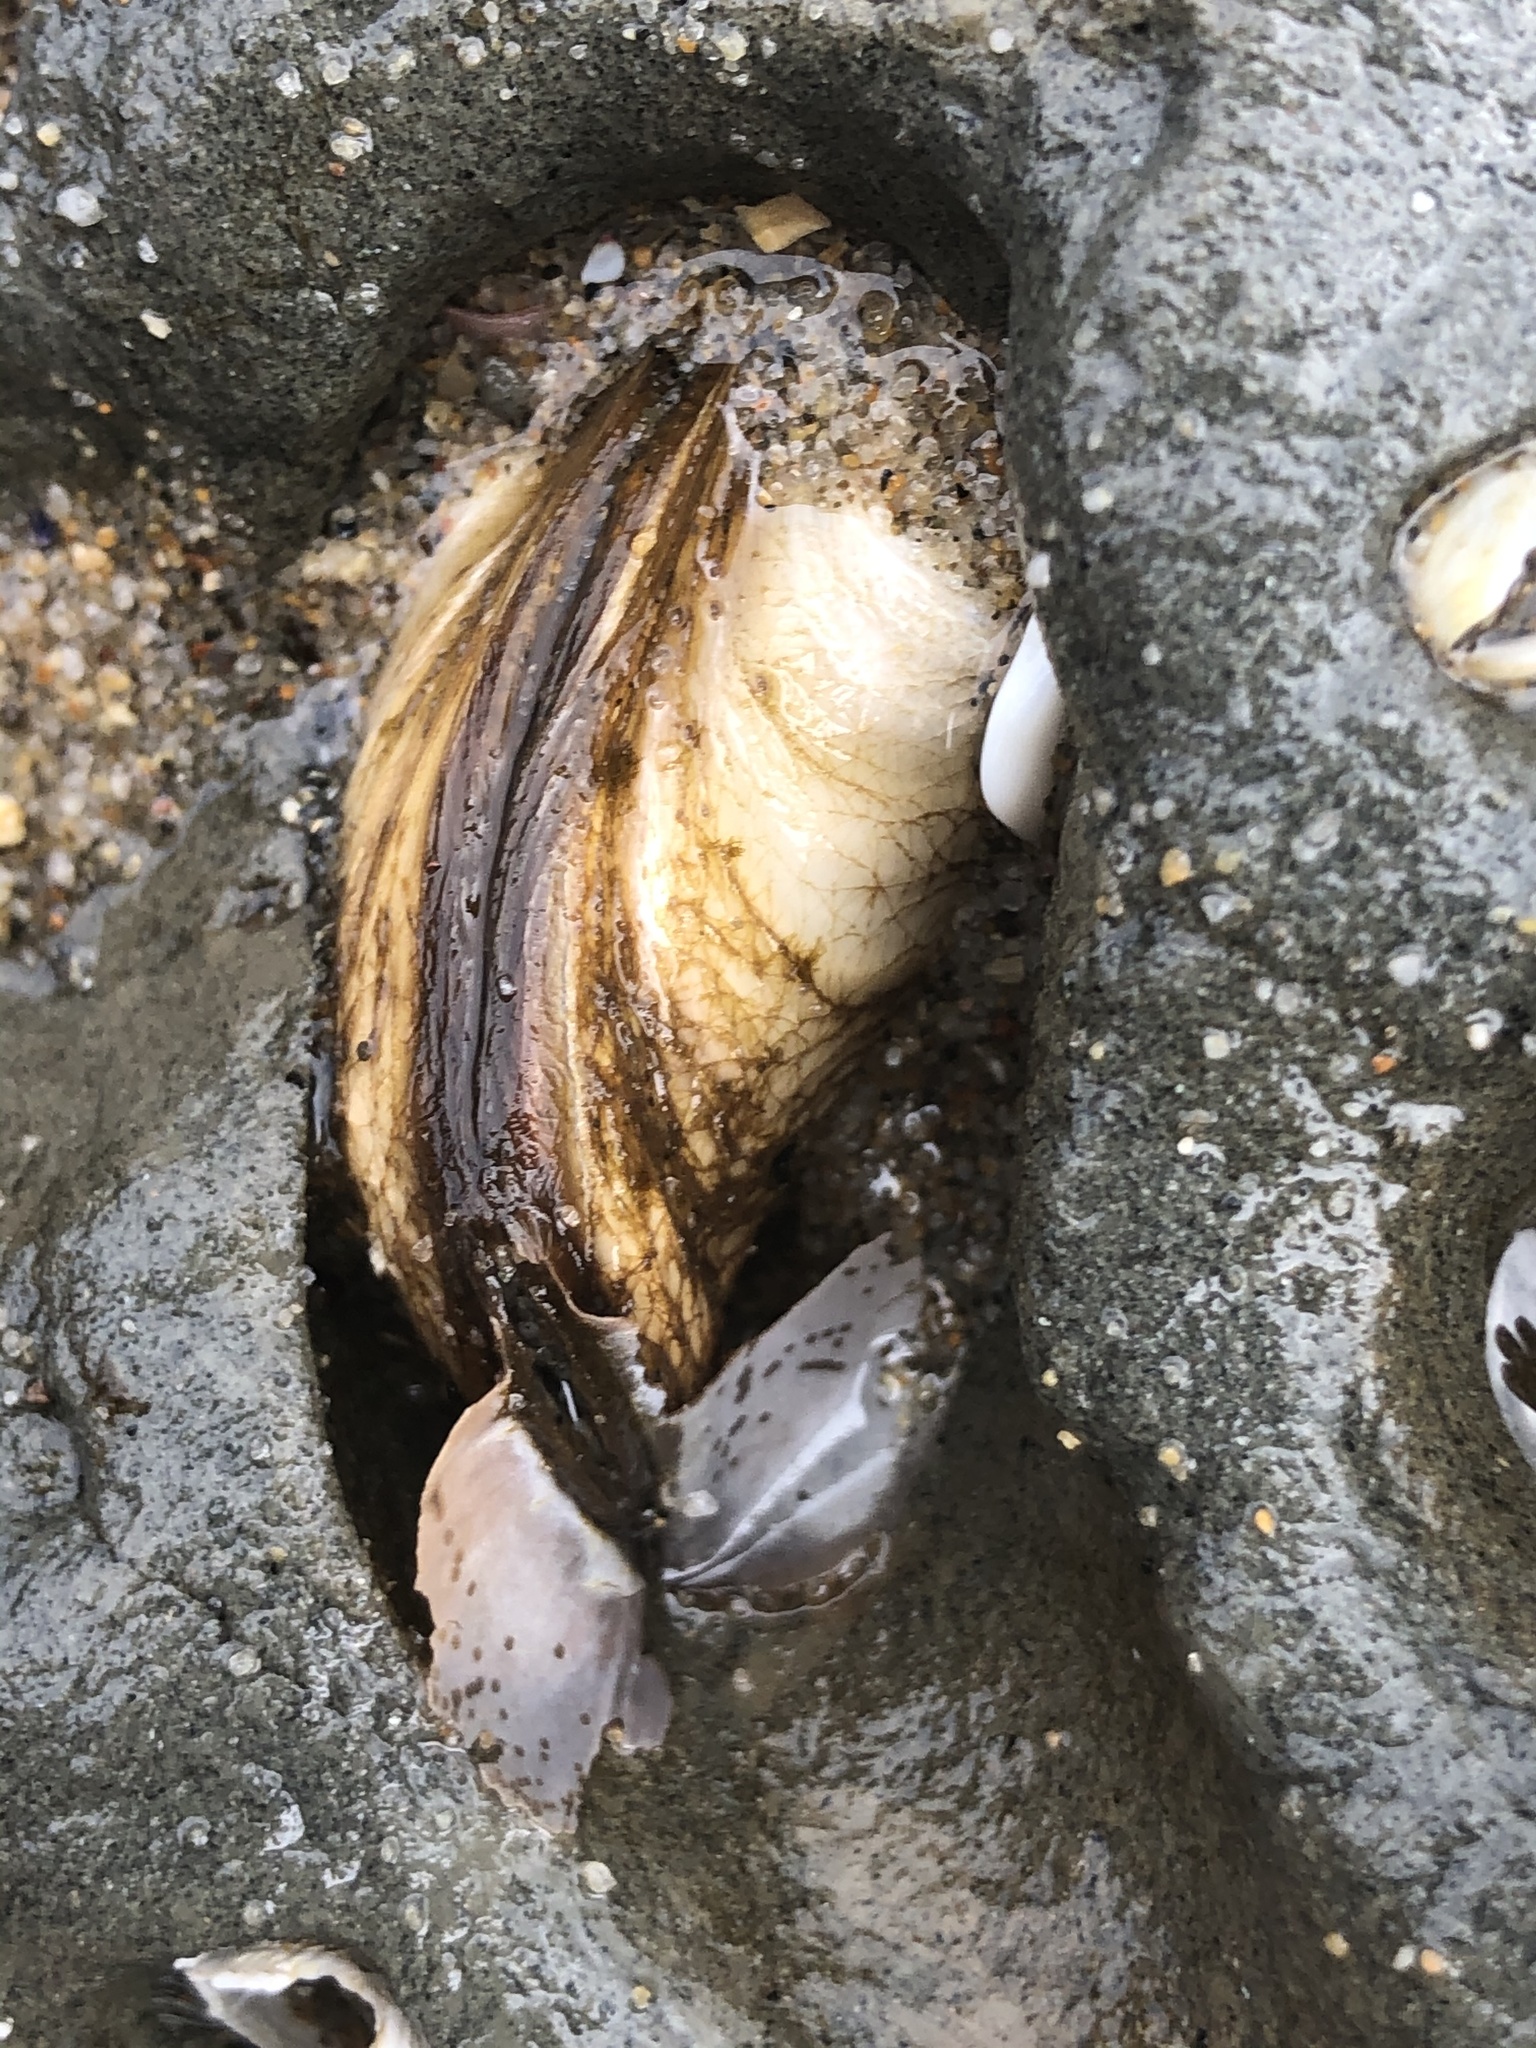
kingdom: Animalia
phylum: Mollusca
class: Bivalvia
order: Myida
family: Pholadidae
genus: Penitella
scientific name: Penitella penita
